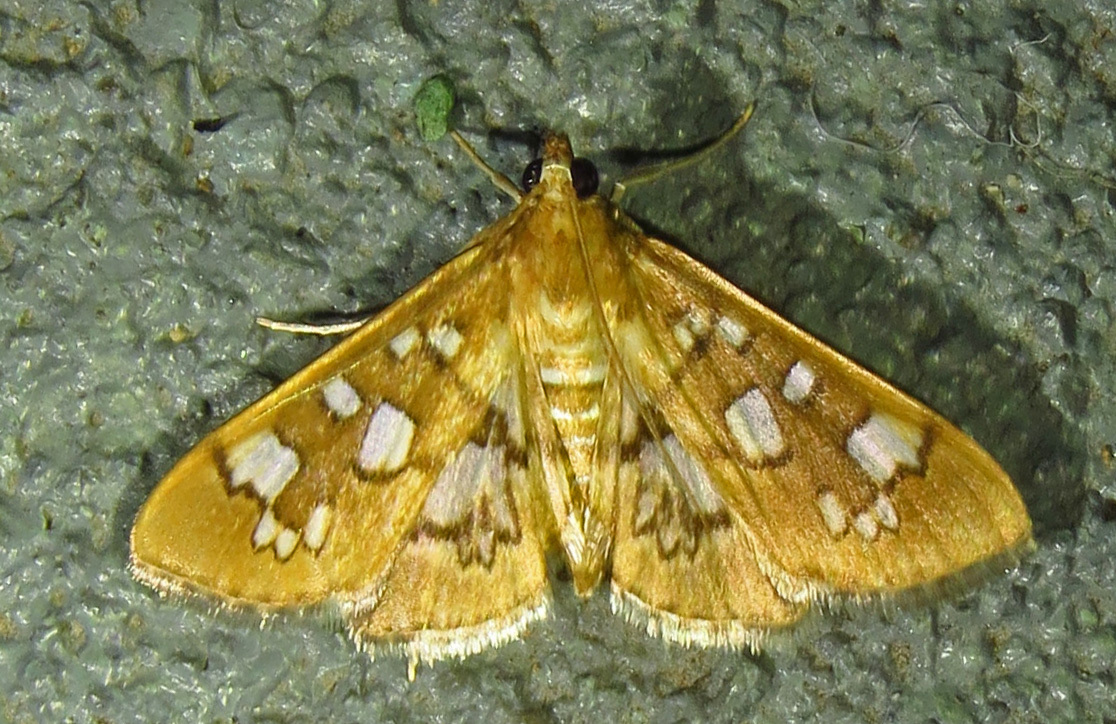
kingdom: Animalia
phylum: Arthropoda
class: Insecta
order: Lepidoptera
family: Crambidae
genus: Samea
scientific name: Samea baccatalis
